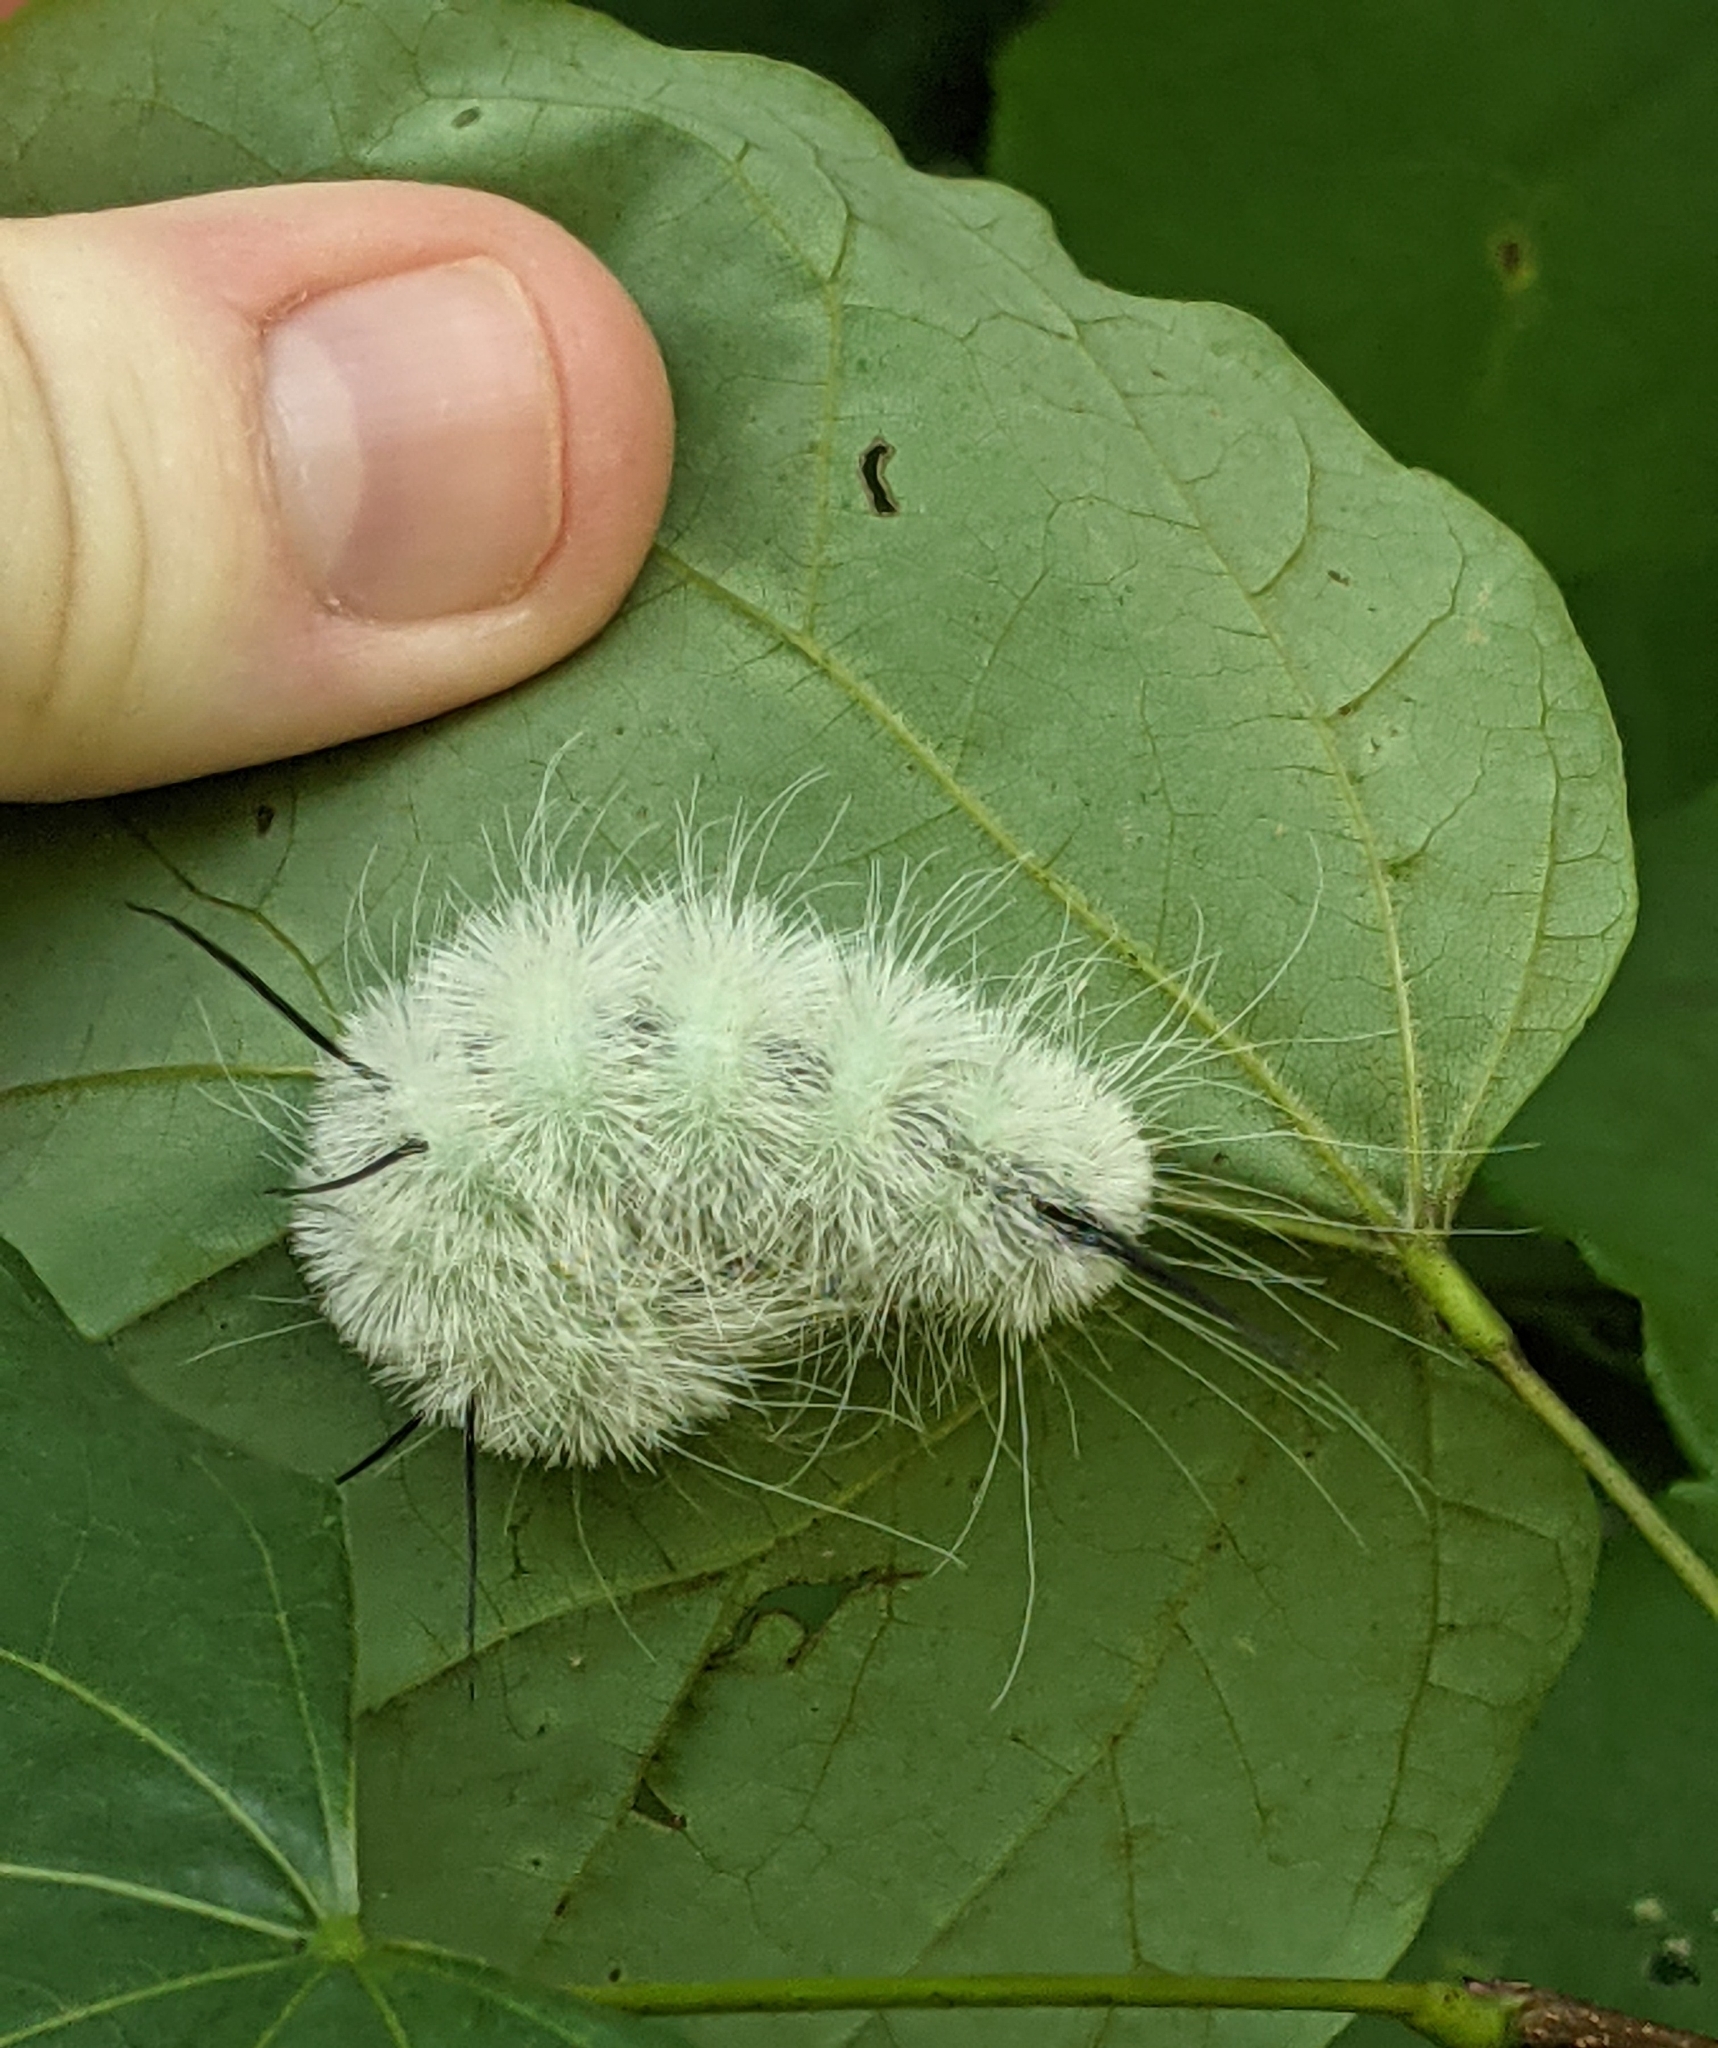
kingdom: Animalia
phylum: Arthropoda
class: Insecta
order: Lepidoptera
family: Noctuidae
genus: Acronicta
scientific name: Acronicta americana
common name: American dagger
